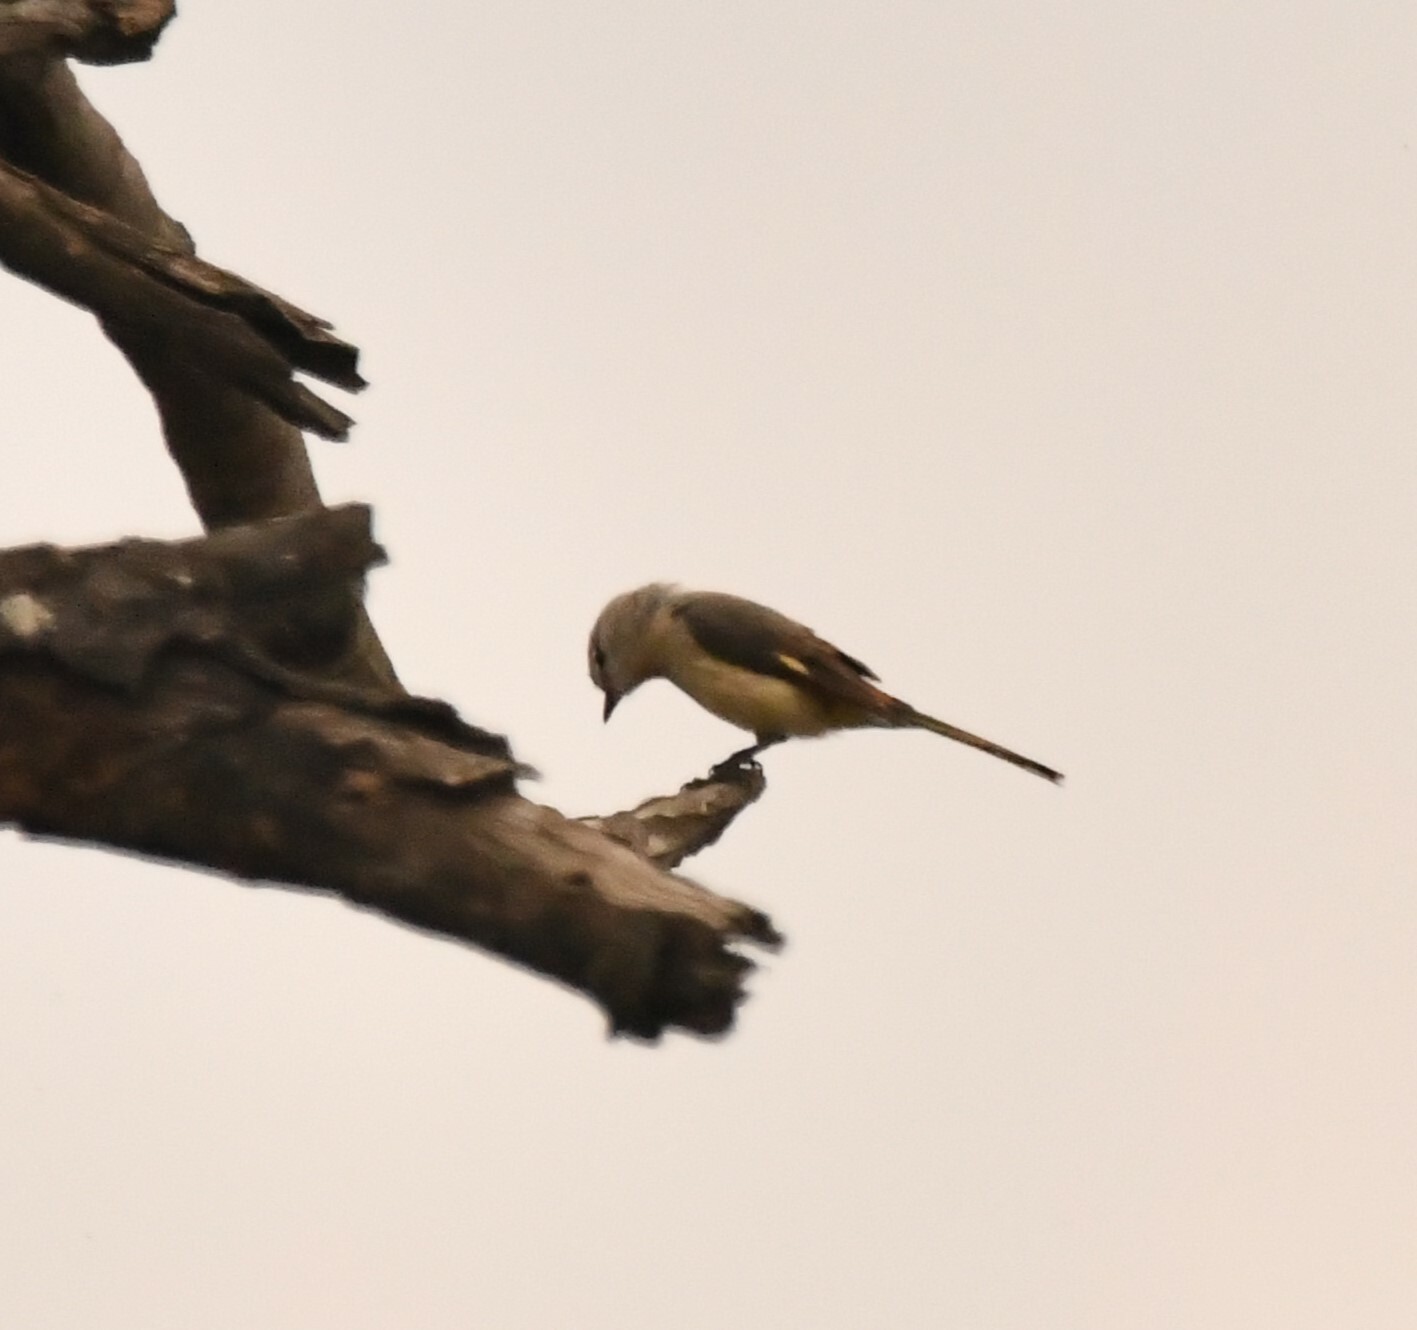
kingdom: Animalia
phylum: Chordata
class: Aves
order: Passeriformes
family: Campephagidae
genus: Pericrocotus
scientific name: Pericrocotus cinnamomeus
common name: Small minivet
